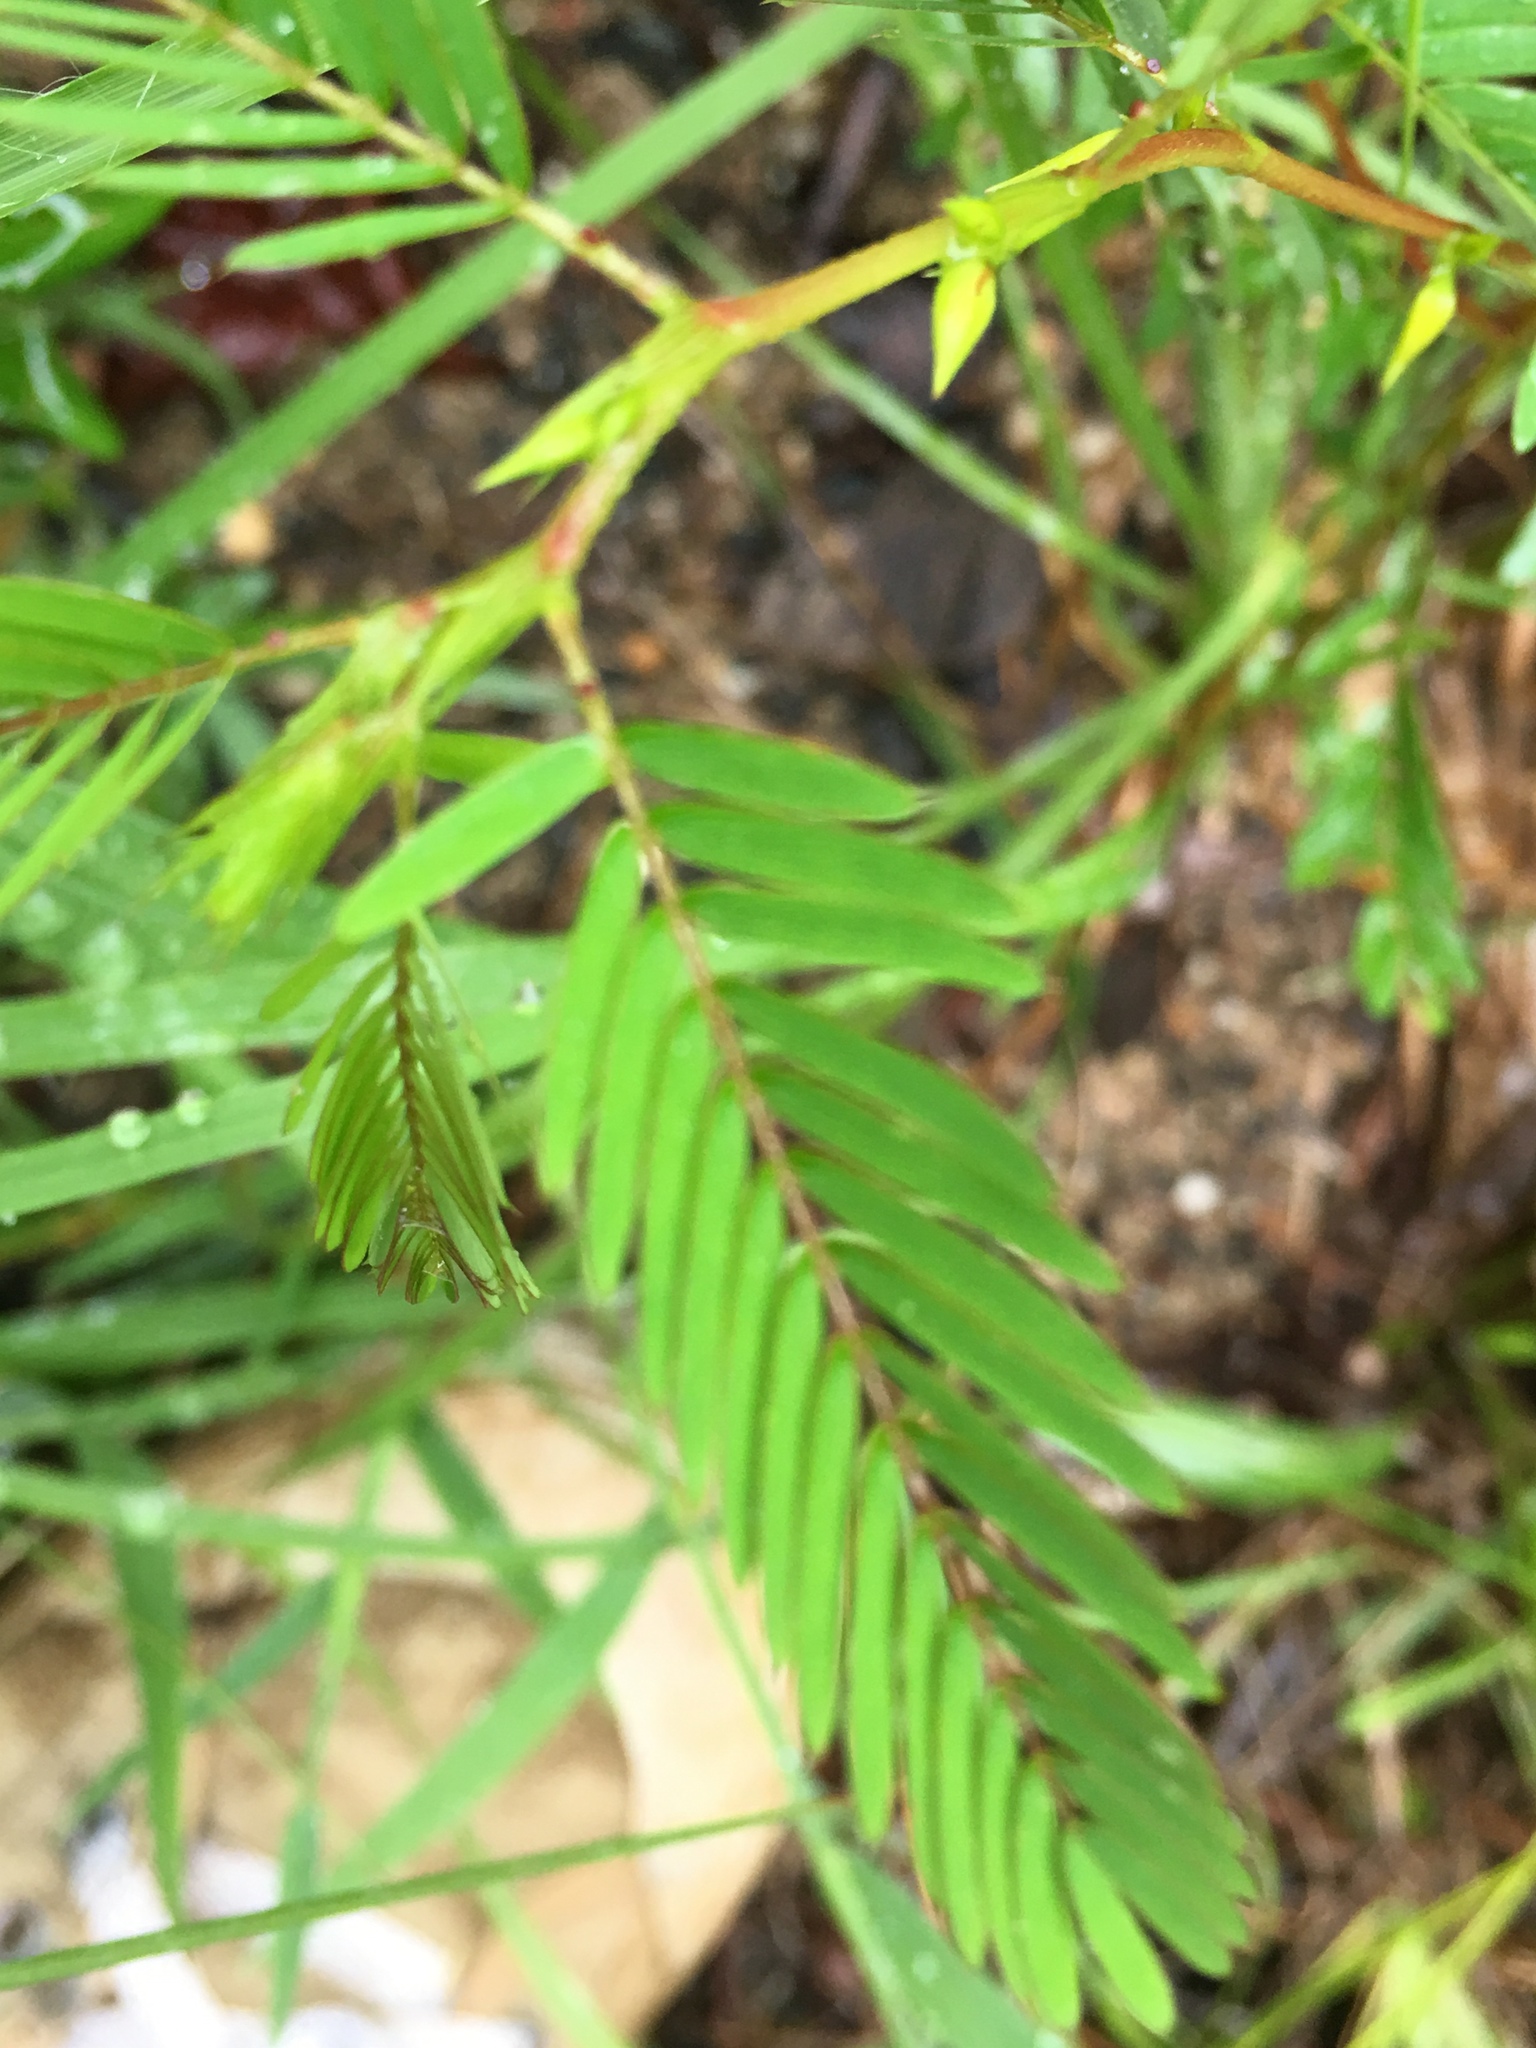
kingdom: Plantae
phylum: Tracheophyta
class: Magnoliopsida
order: Fabales
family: Fabaceae
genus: Chamaecrista
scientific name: Chamaecrista nictitans
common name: Sensitive cassia
